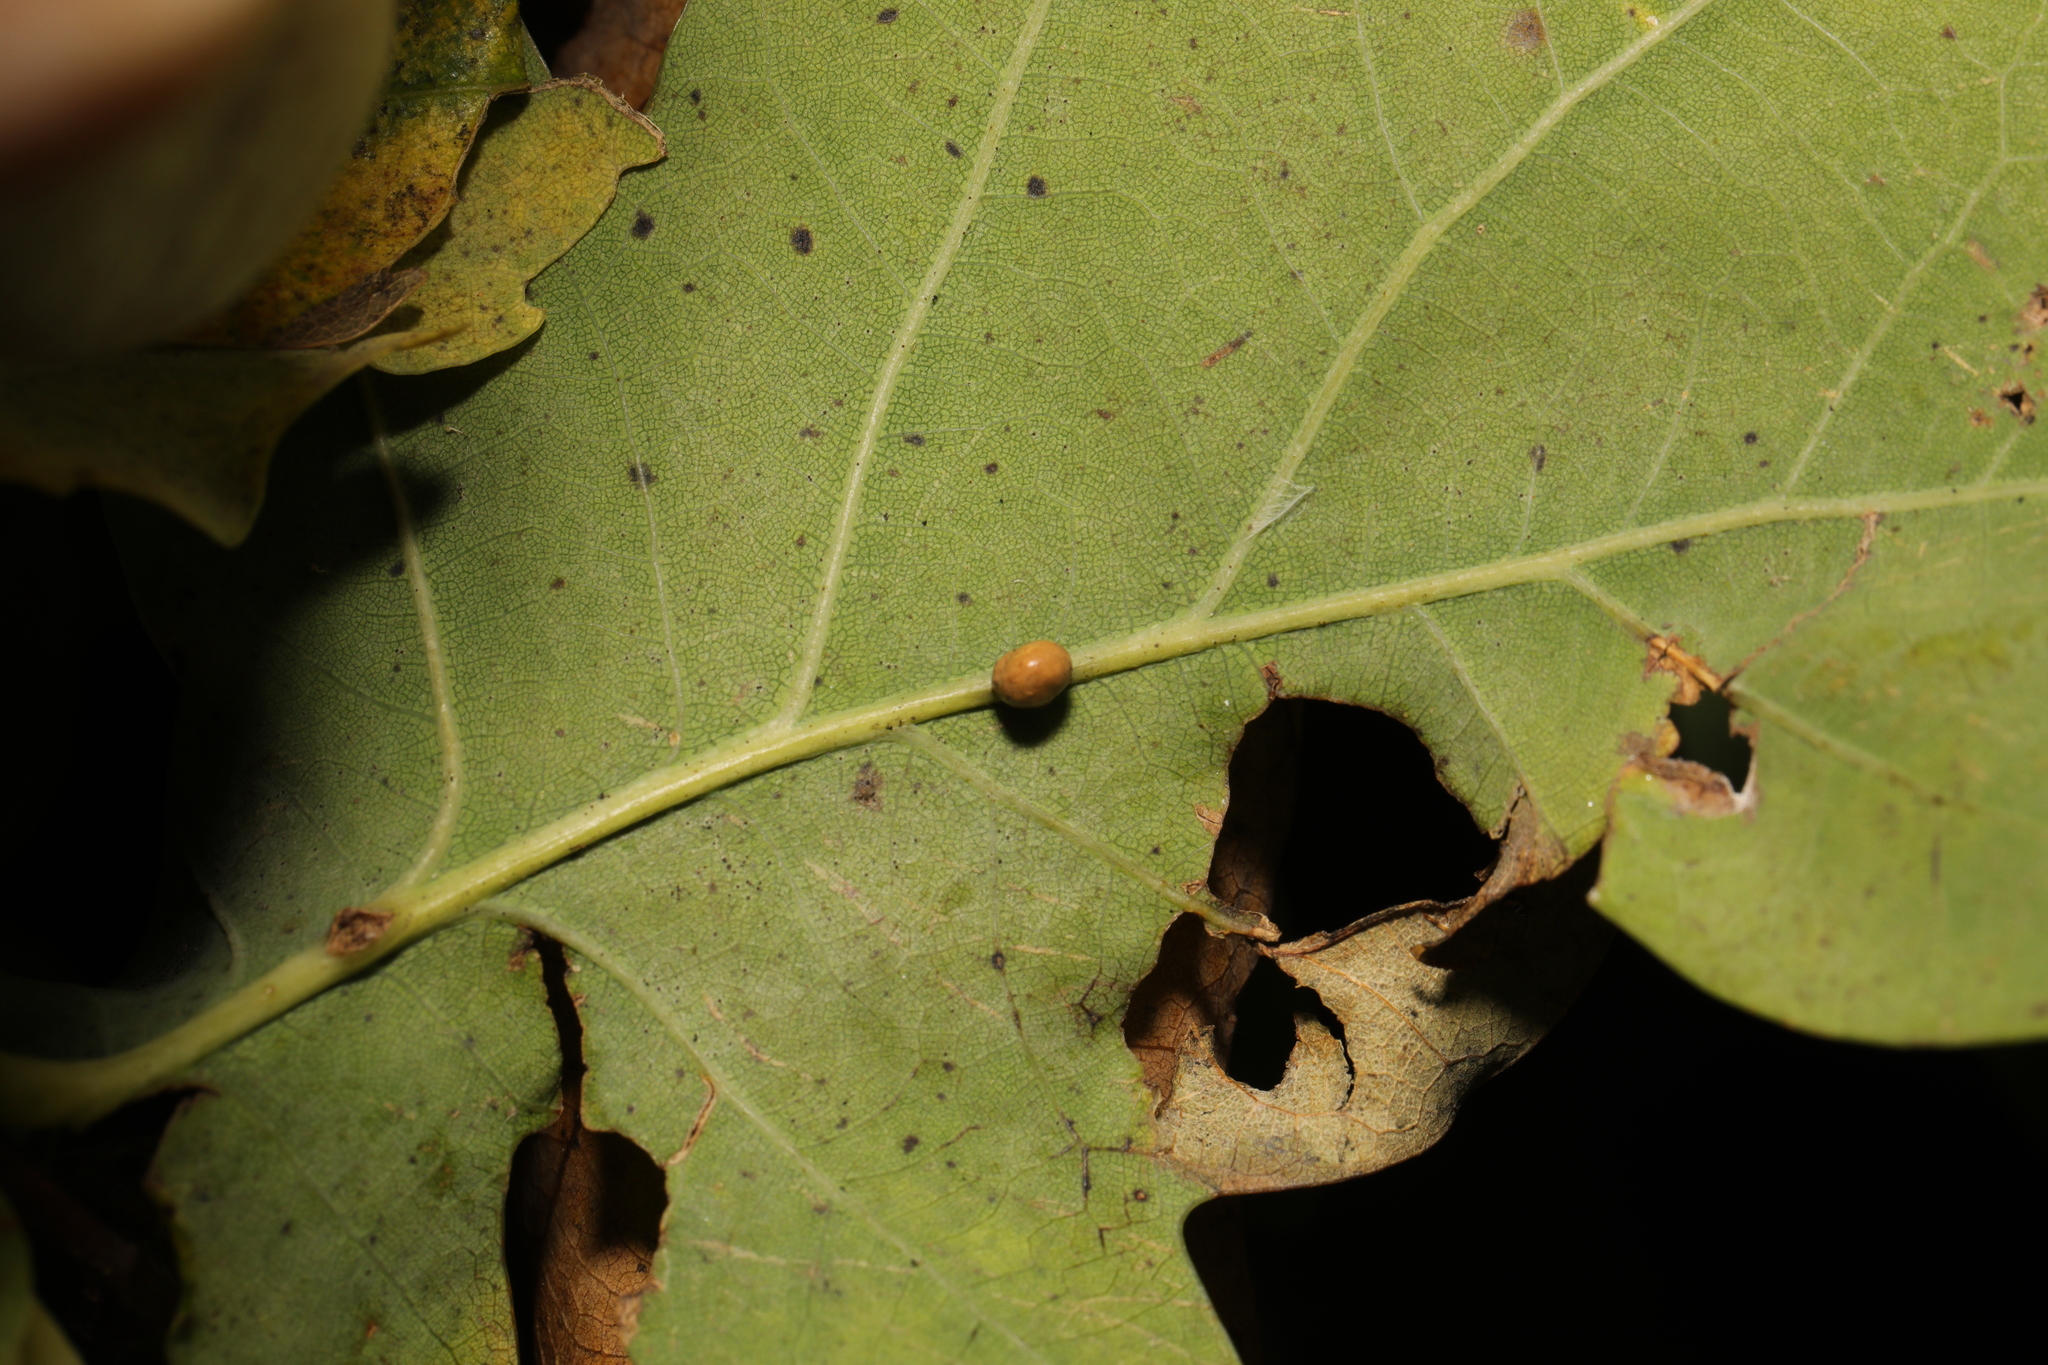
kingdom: Animalia
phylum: Arthropoda
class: Insecta
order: Hymenoptera
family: Cynipidae
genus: Neuroterus
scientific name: Neuroterus anthracinus
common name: Oyster gall
